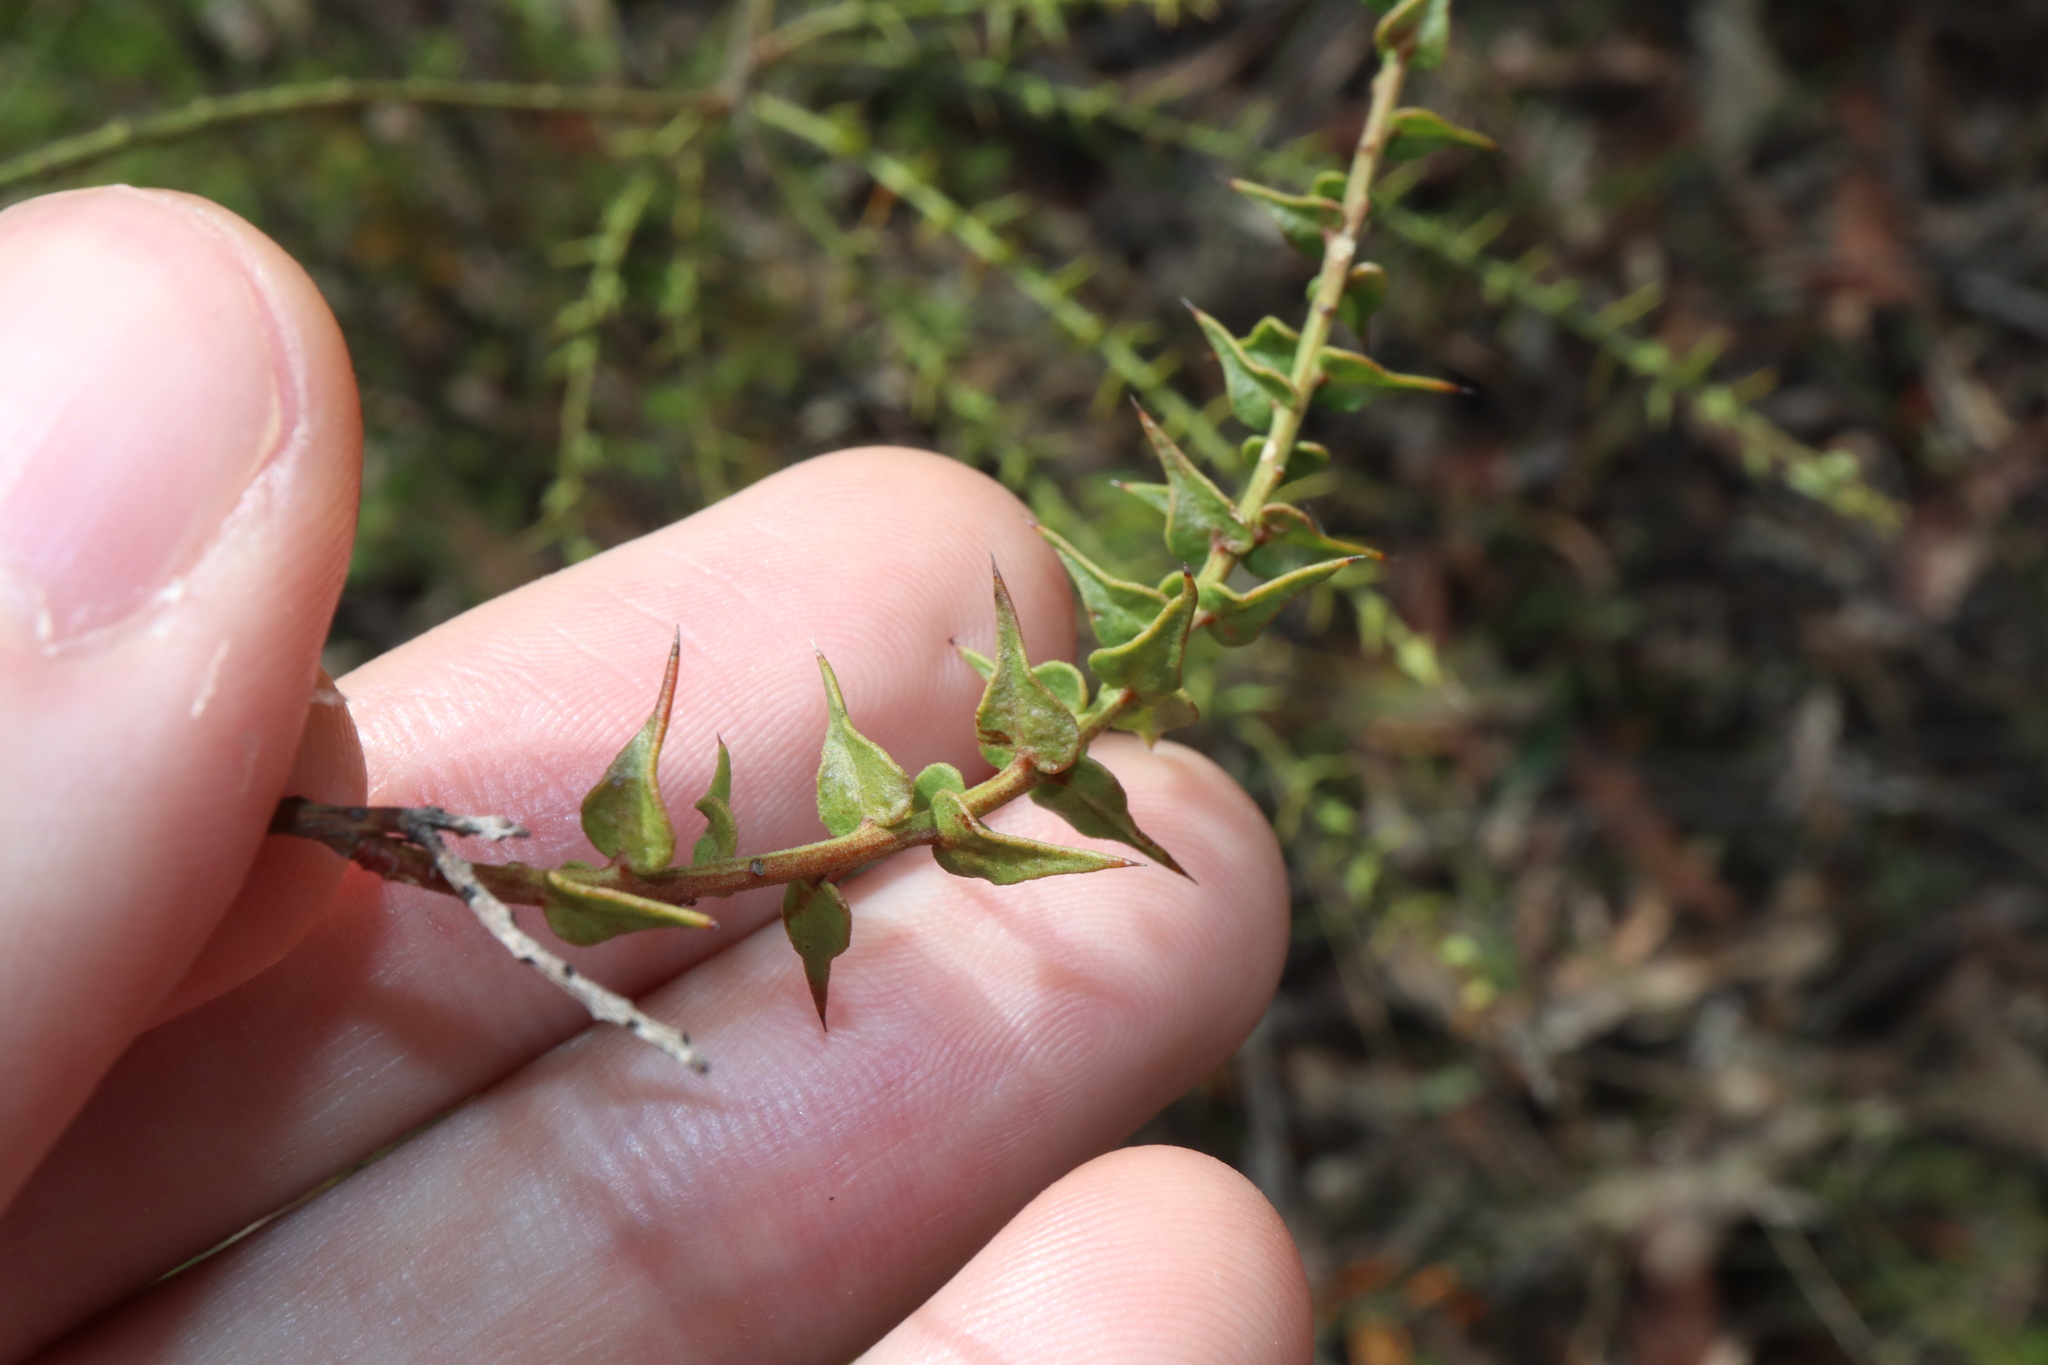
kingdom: Plantae
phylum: Tracheophyta
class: Magnoliopsida
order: Fabales
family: Fabaceae
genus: Daviesia
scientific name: Daviesia squarrosa
